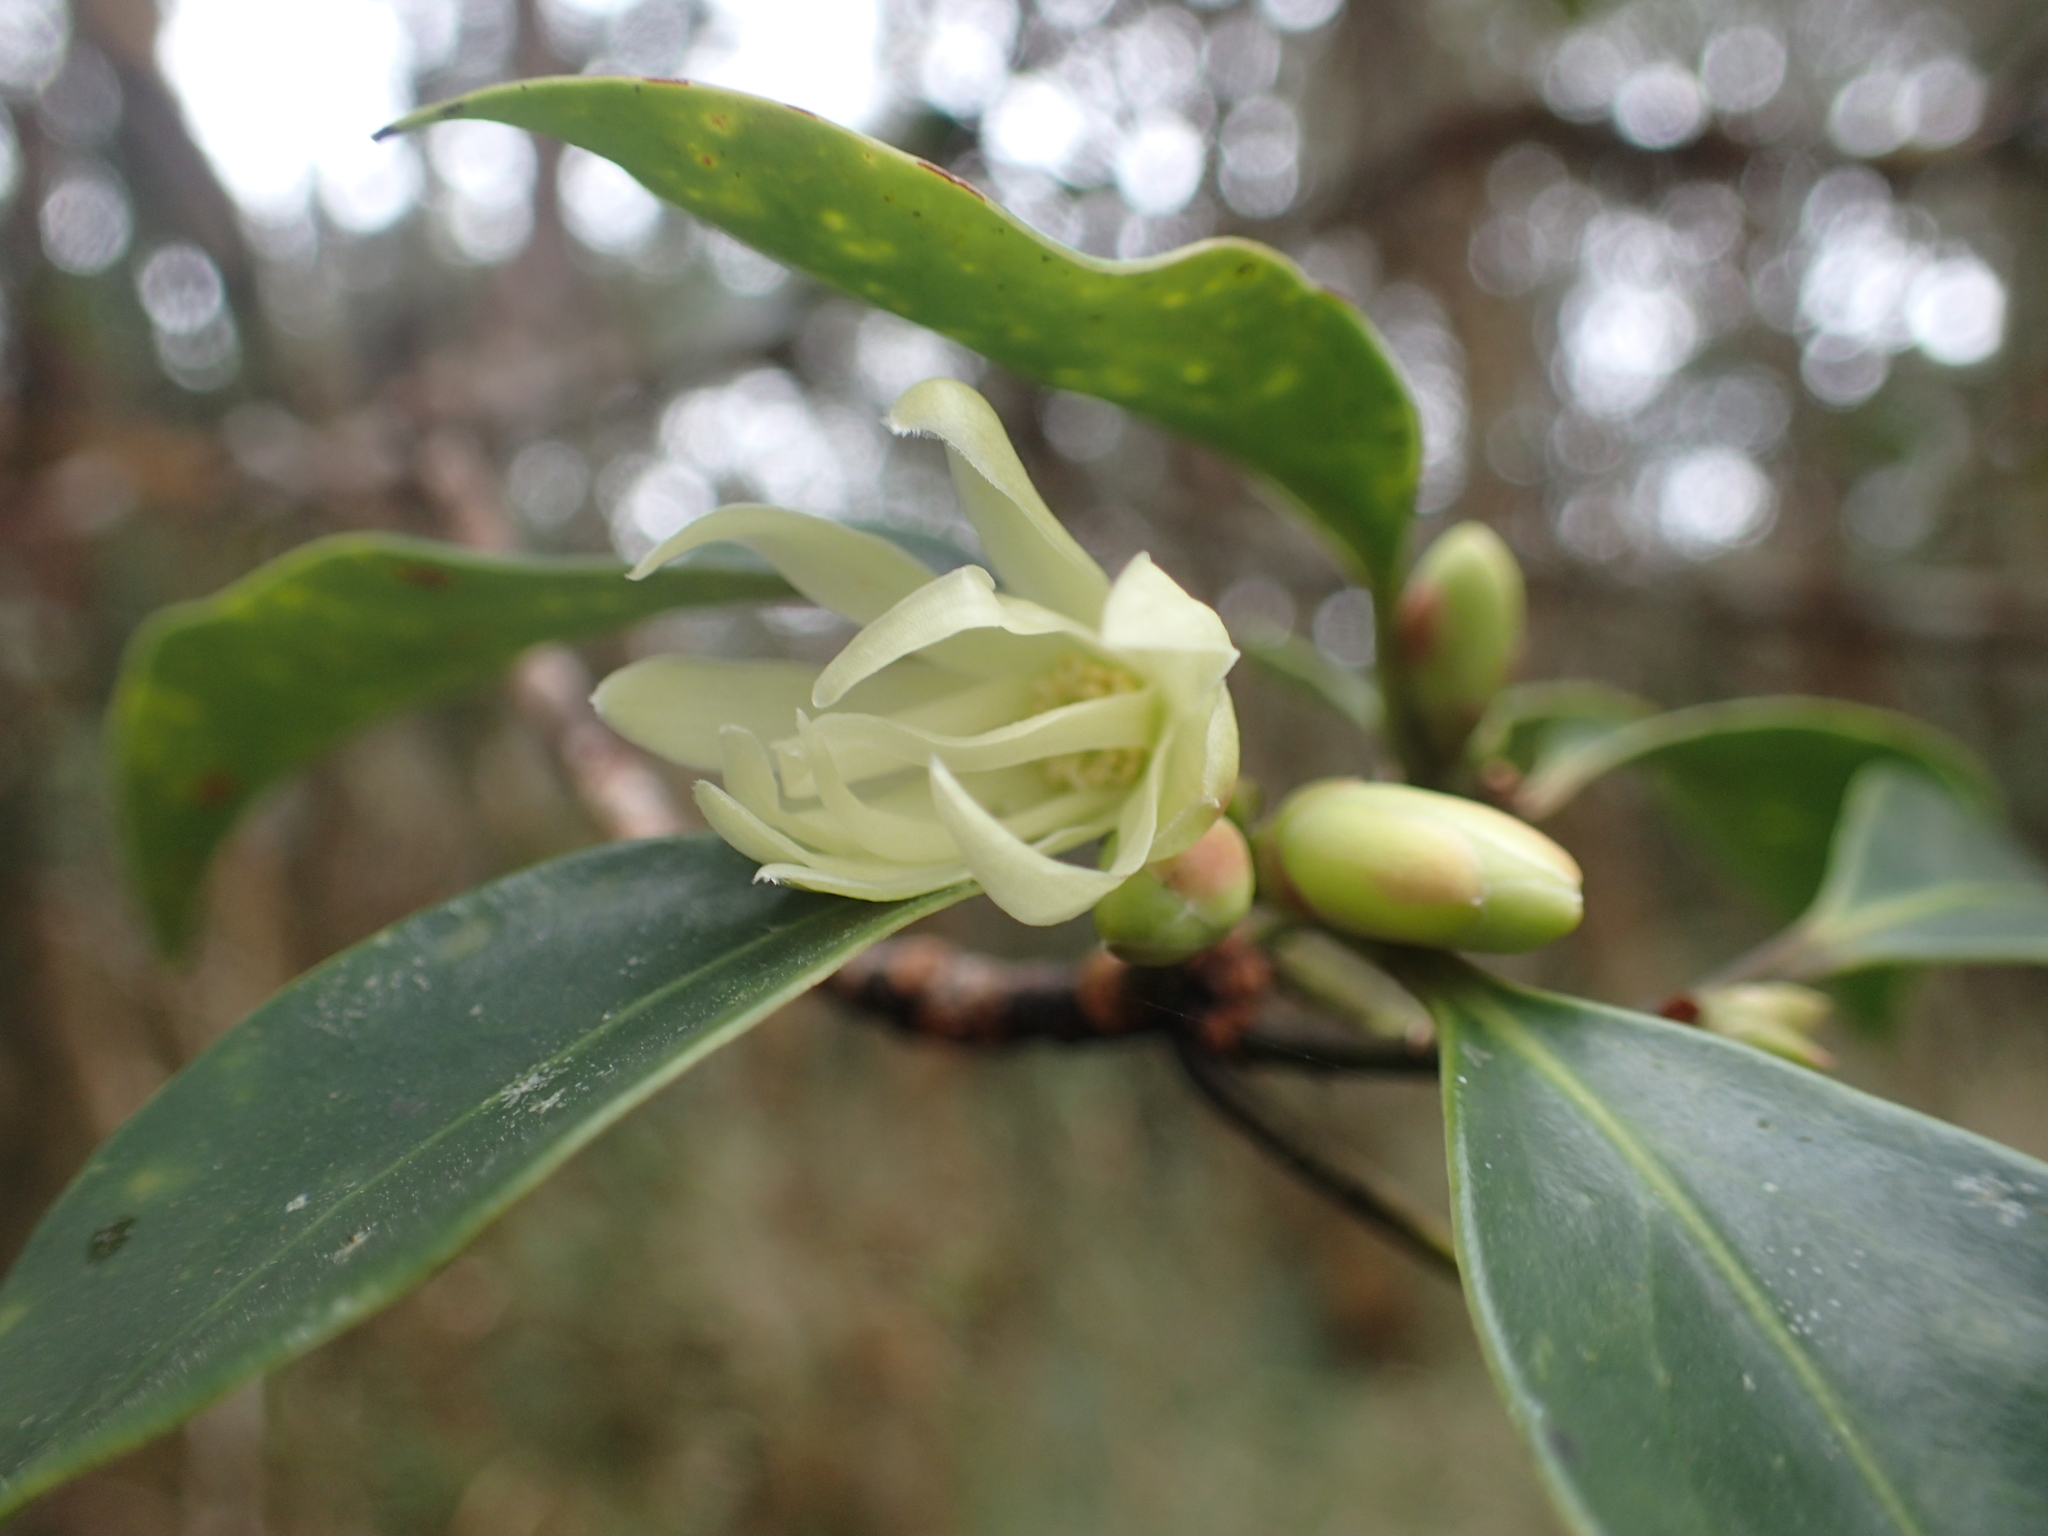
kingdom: Plantae
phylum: Tracheophyta
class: Magnoliopsida
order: Austrobaileyales
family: Schisandraceae
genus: Illicium
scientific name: Illicium anisatum
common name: Sacred anisetree
